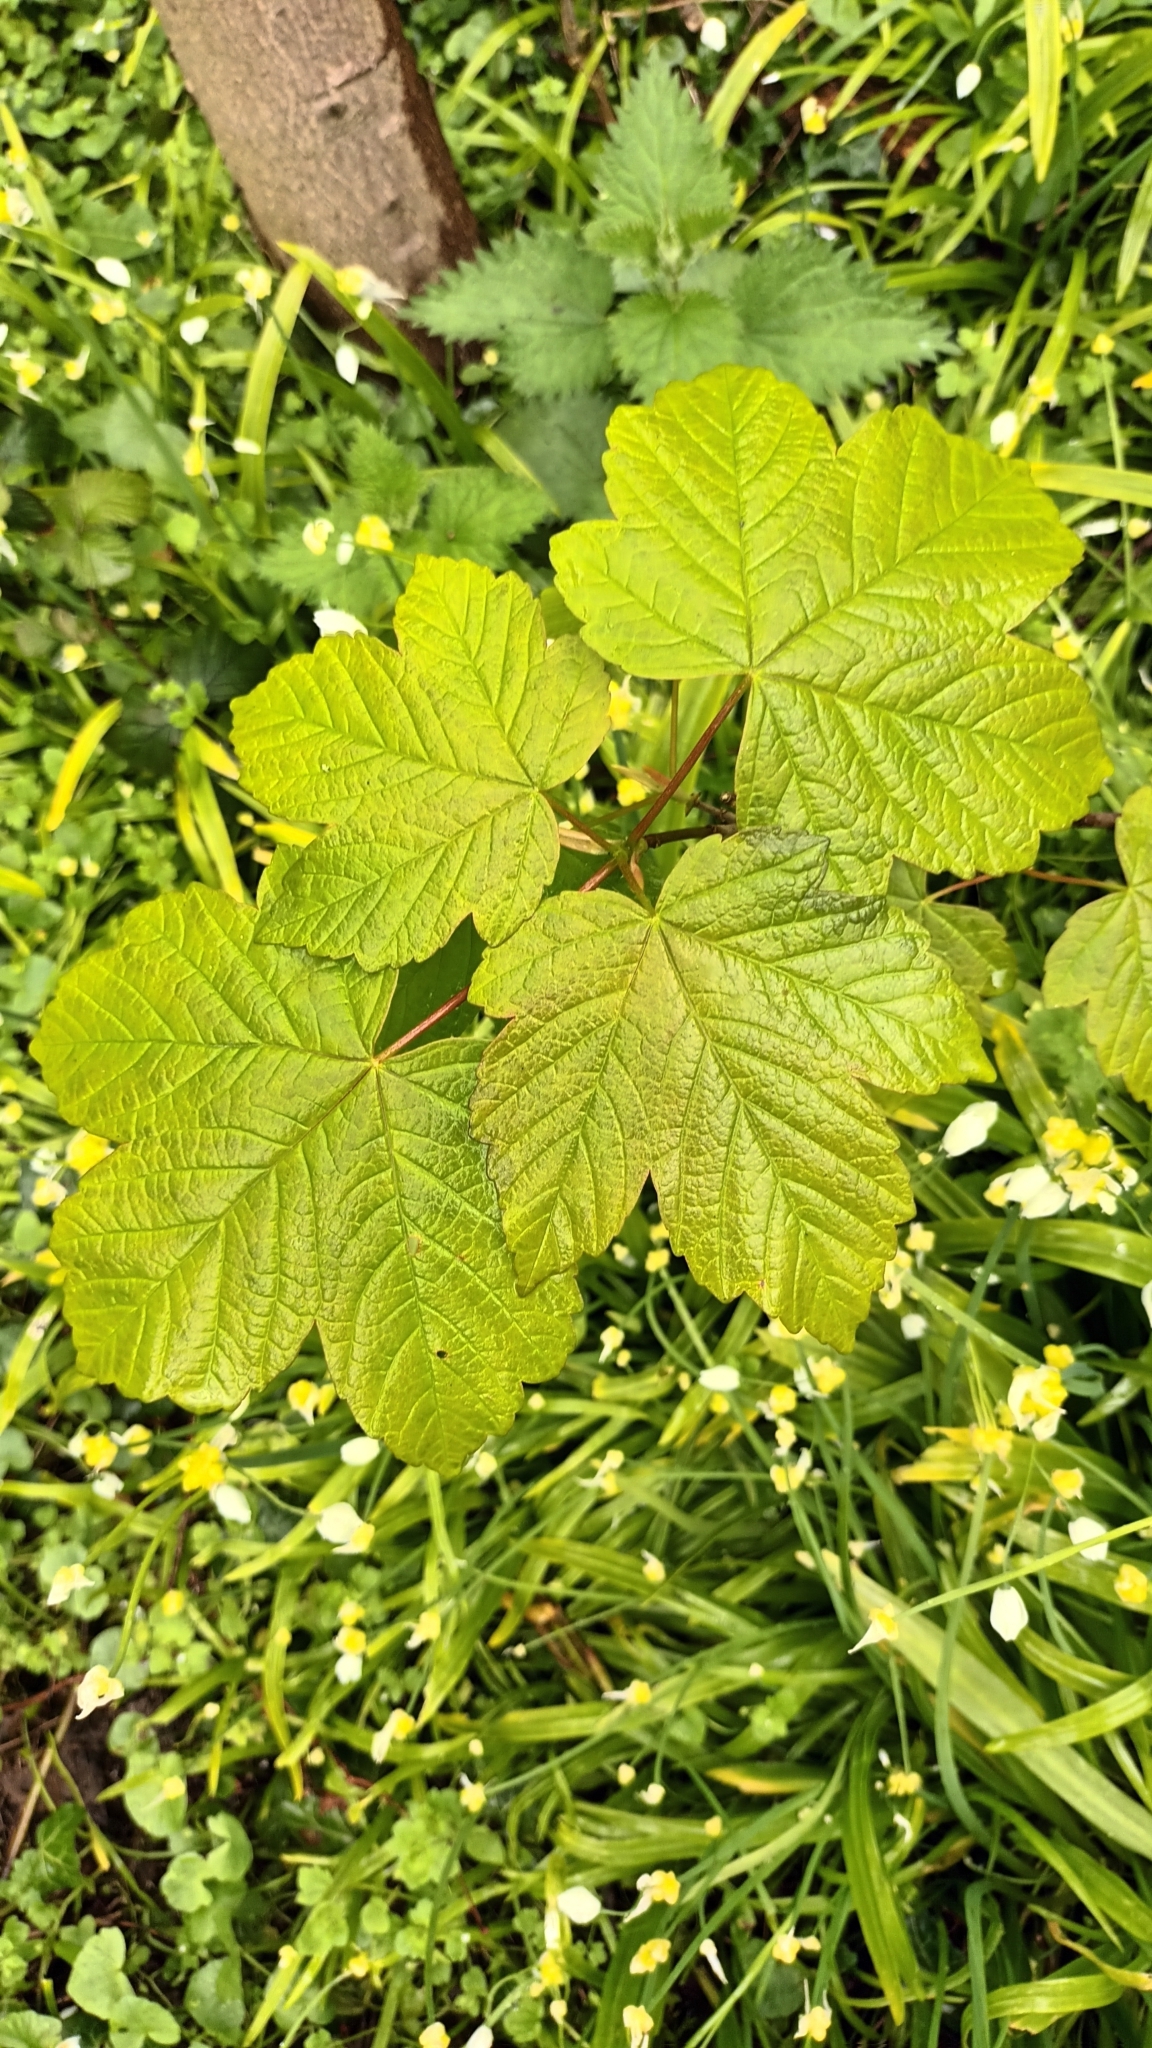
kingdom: Plantae
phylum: Tracheophyta
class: Magnoliopsida
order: Sapindales
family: Sapindaceae
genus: Acer
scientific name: Acer pseudoplatanus
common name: Sycamore
